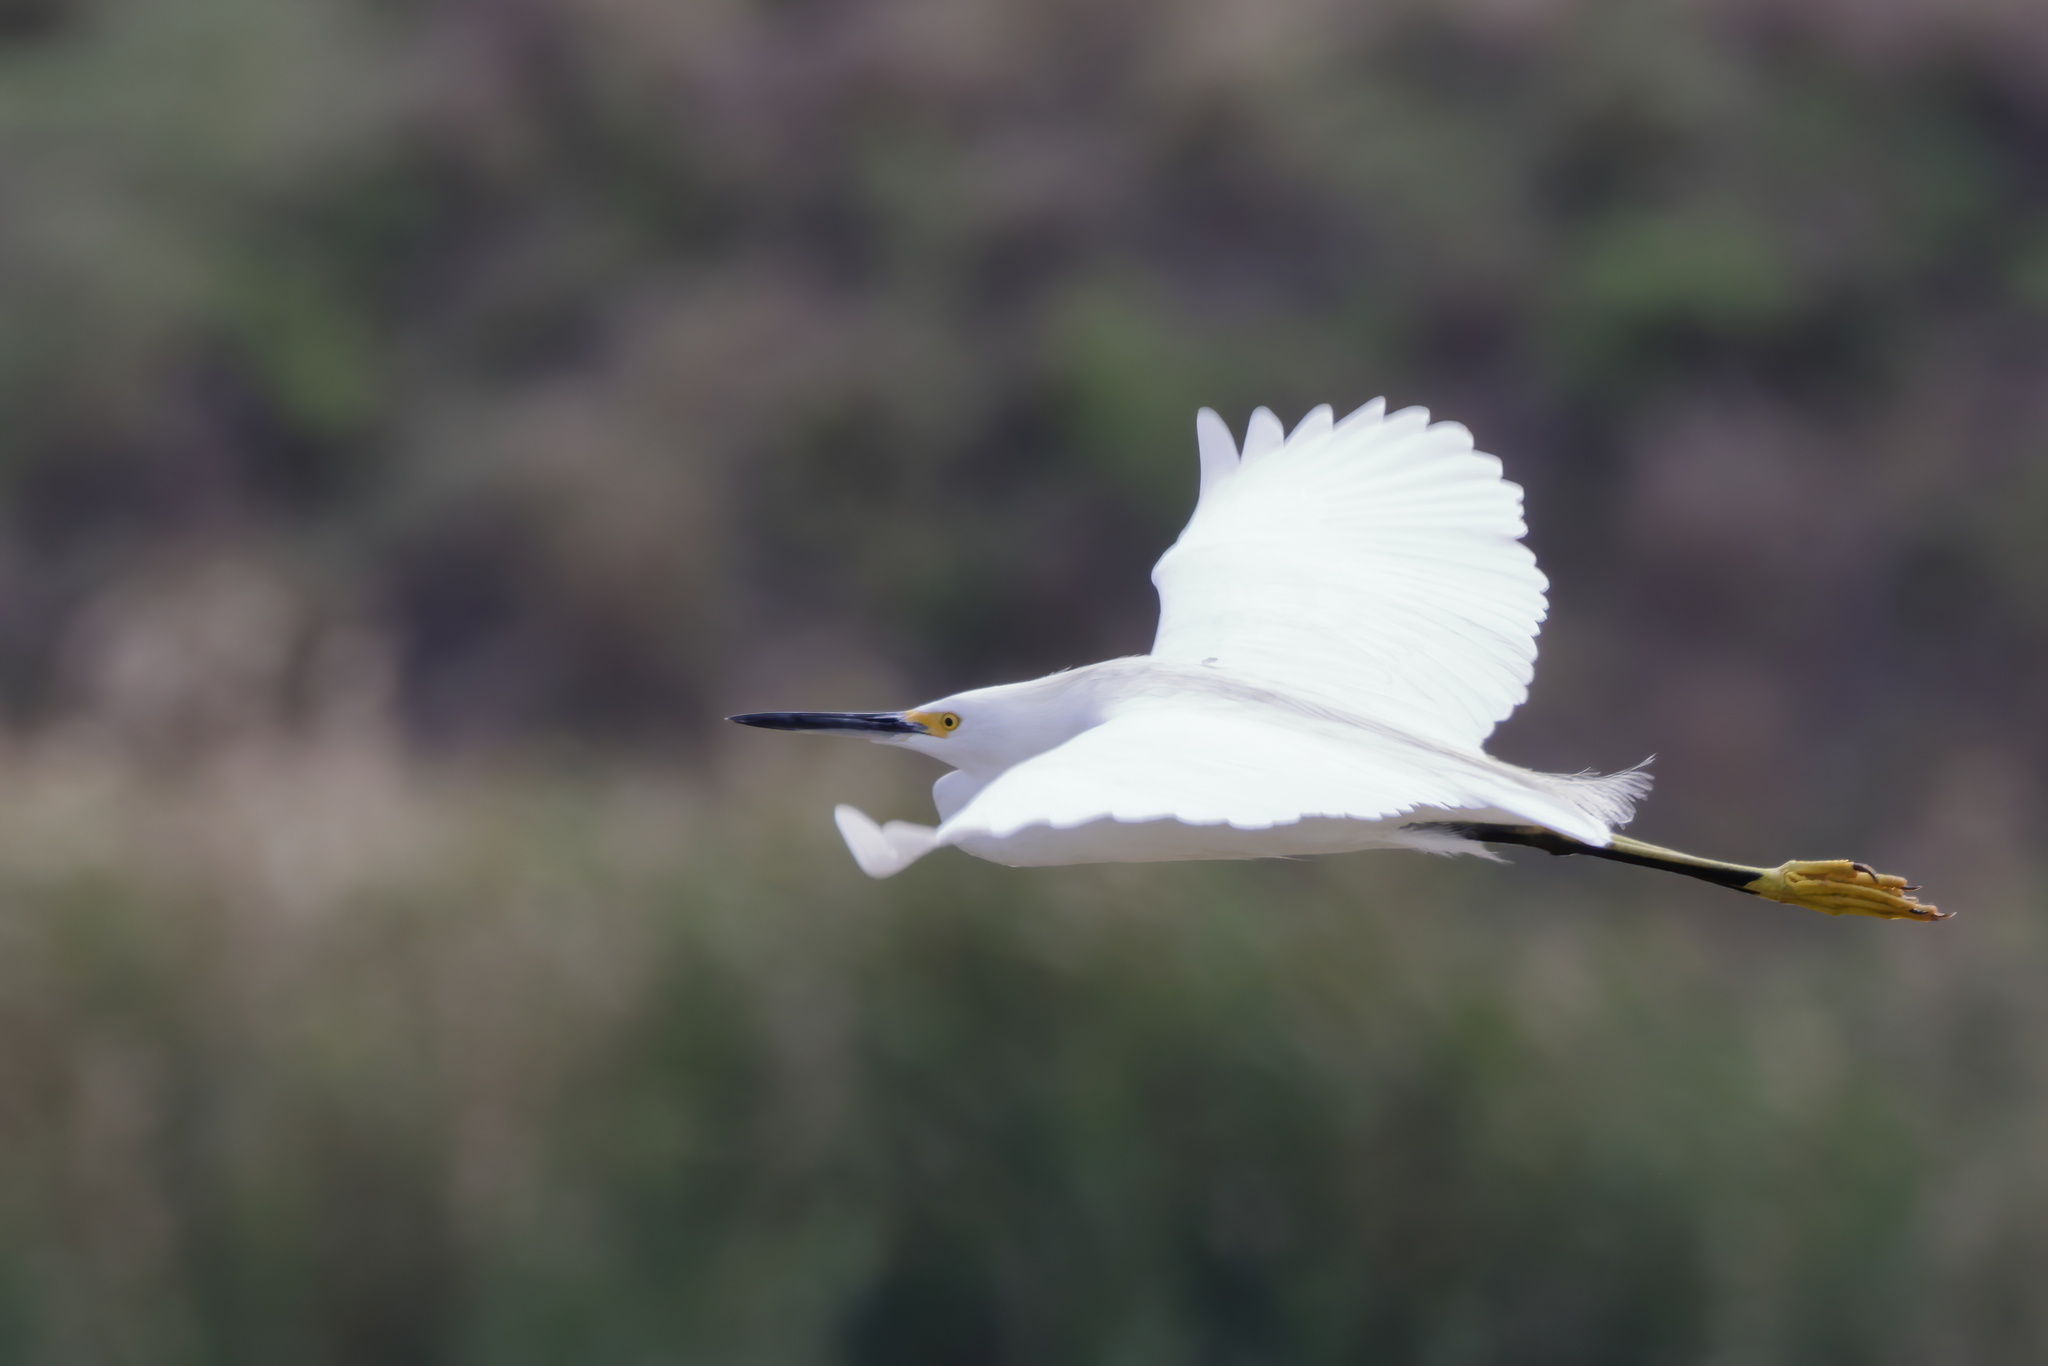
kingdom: Animalia
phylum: Chordata
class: Aves
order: Pelecaniformes
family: Ardeidae
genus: Egretta
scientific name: Egretta thula
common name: Snowy egret
